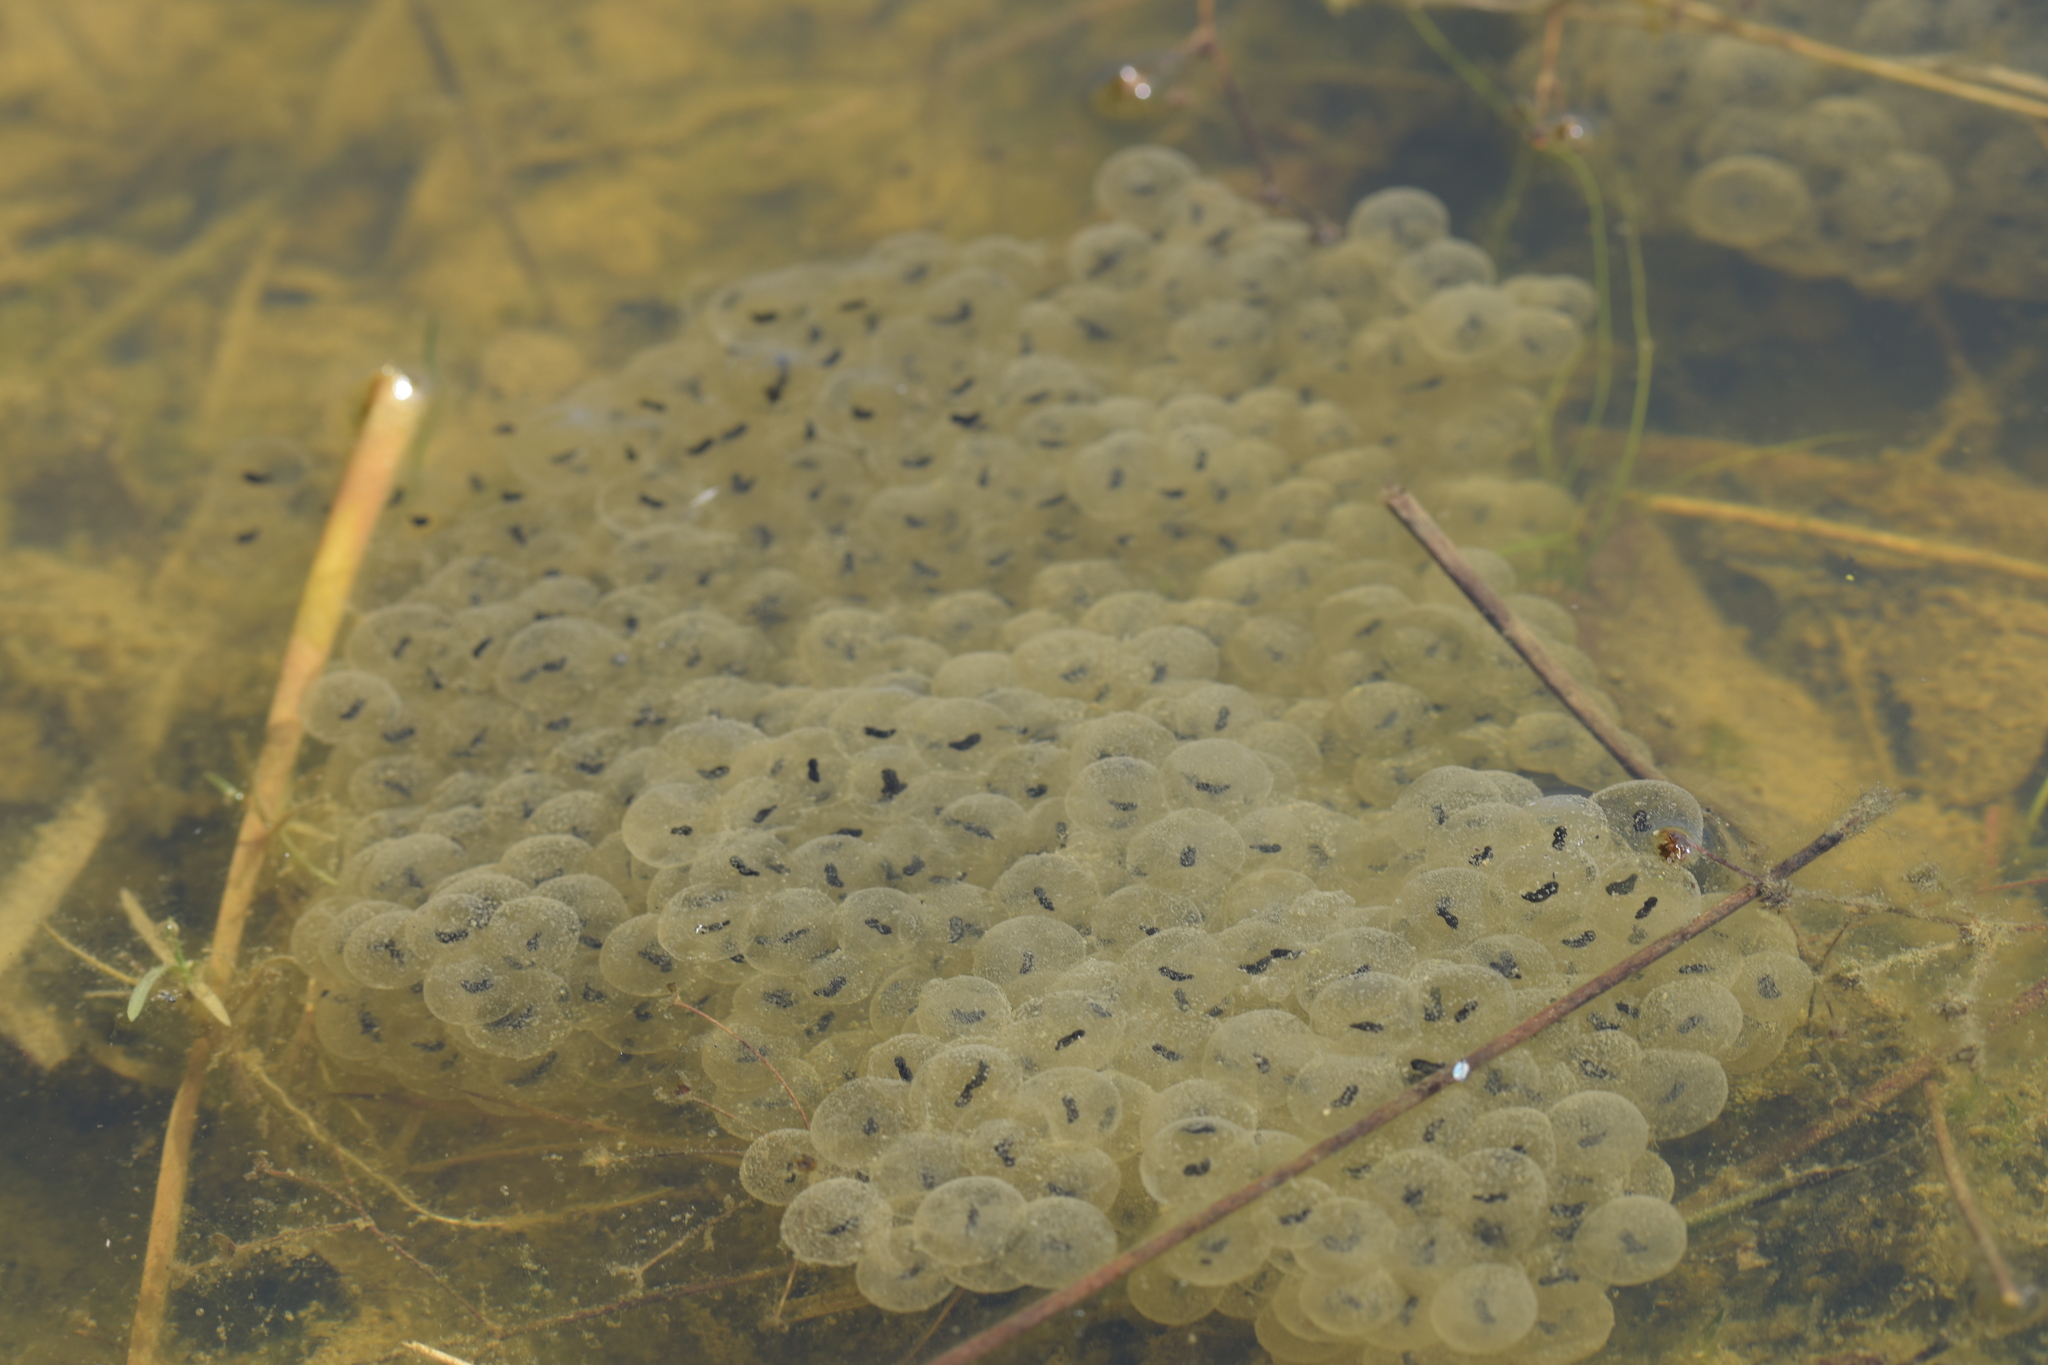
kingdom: Animalia
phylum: Chordata
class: Amphibia
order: Anura
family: Ranidae
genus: Rana
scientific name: Rana
